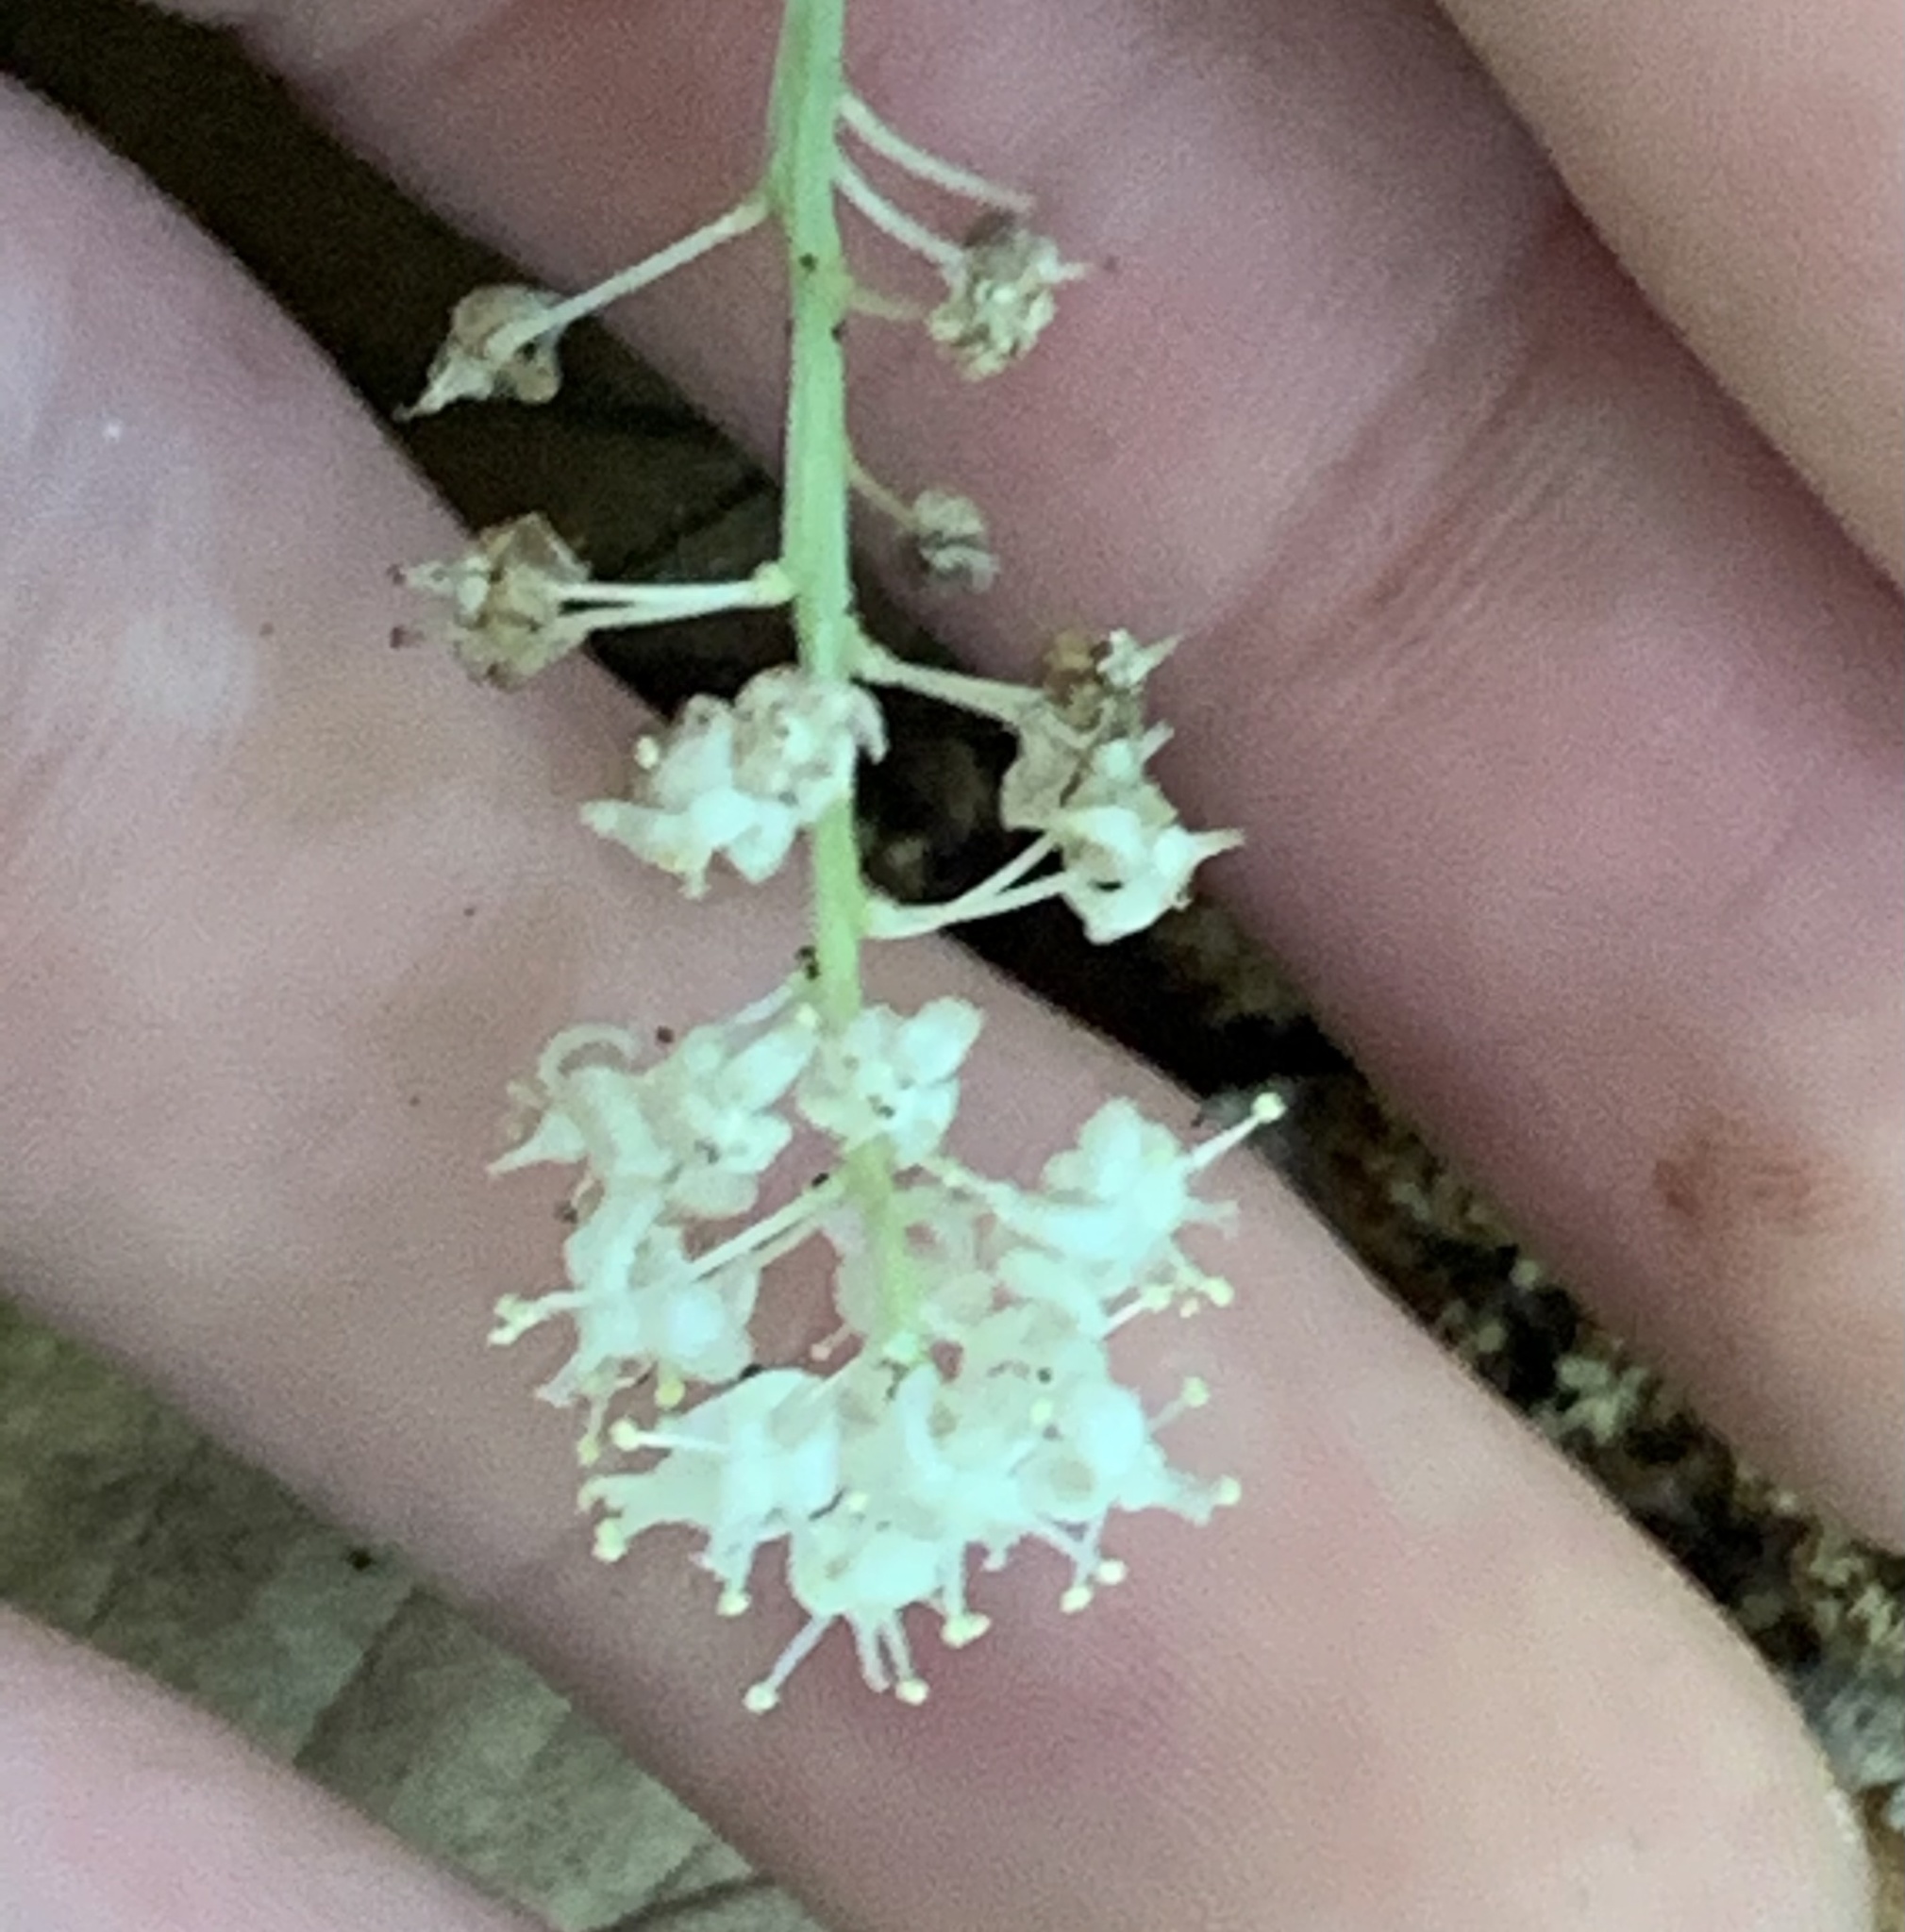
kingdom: Plantae
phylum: Tracheophyta
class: Liliopsida
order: Asparagales
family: Asparagaceae
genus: Maianthemum
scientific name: Maianthemum canadense
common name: False lily-of-the-valley
